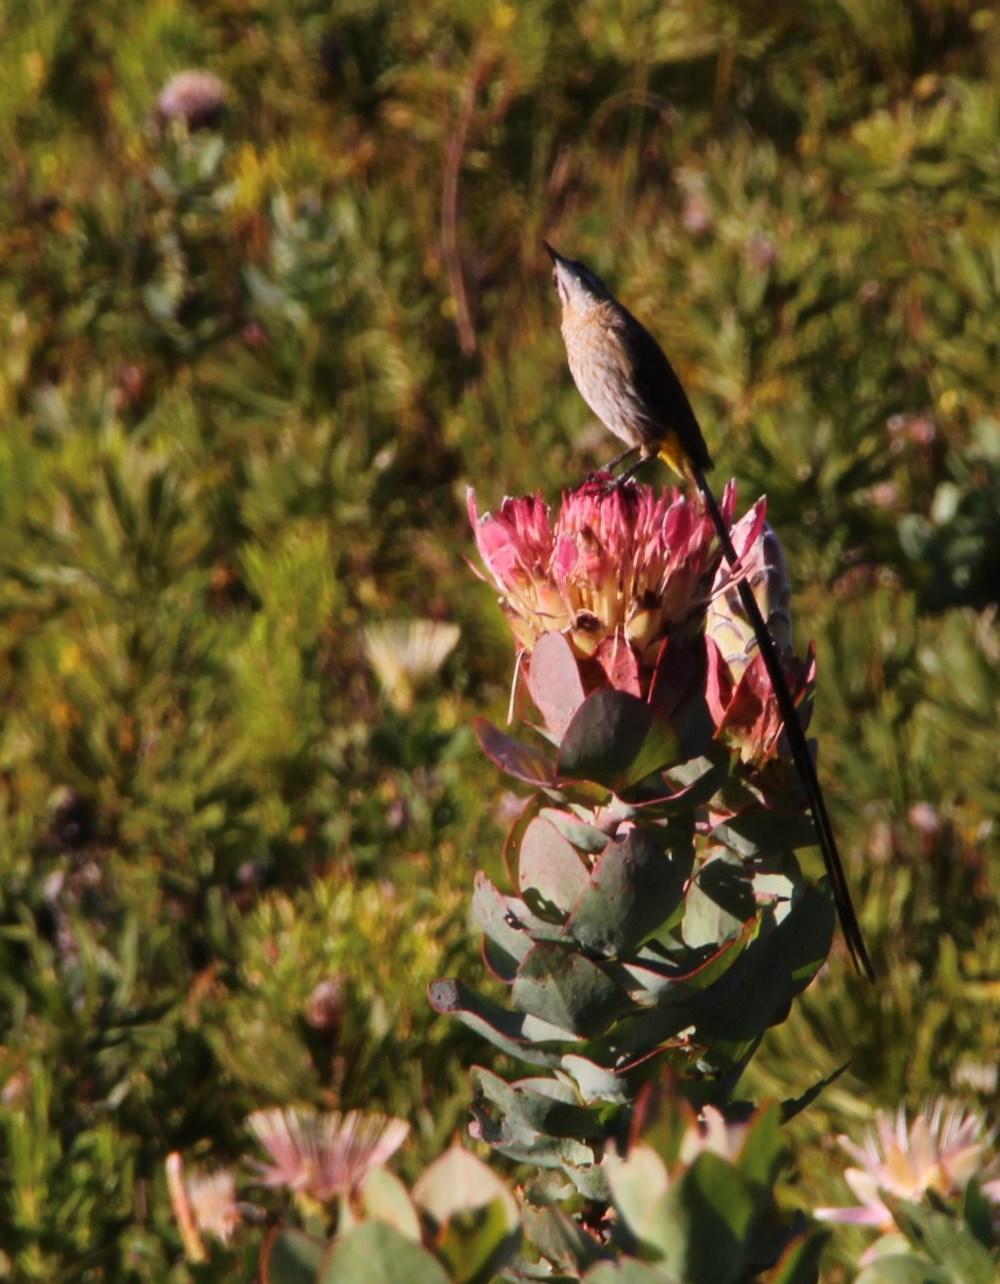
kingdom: Animalia
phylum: Chordata
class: Aves
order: Passeriformes
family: Promeropidae
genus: Promerops
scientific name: Promerops cafer
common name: Cape sugarbird
